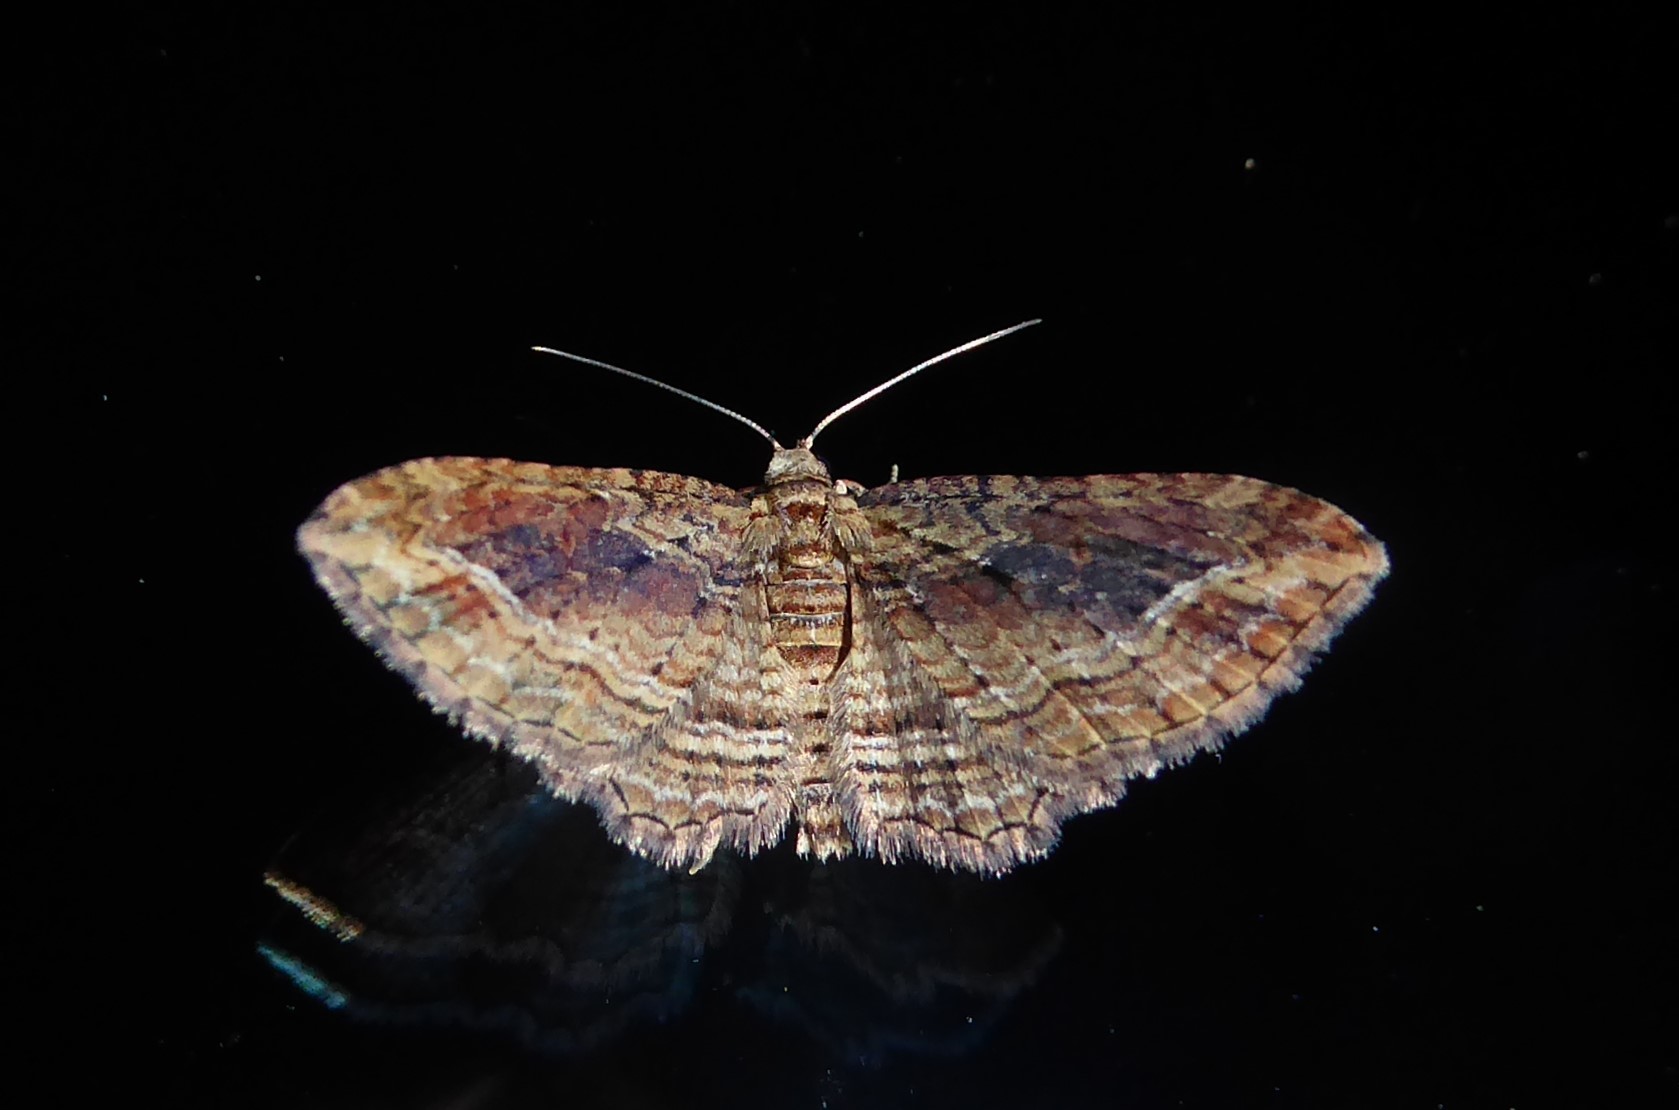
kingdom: Animalia
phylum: Arthropoda
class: Insecta
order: Lepidoptera
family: Geometridae
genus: Chloroclystis
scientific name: Chloroclystis filata
